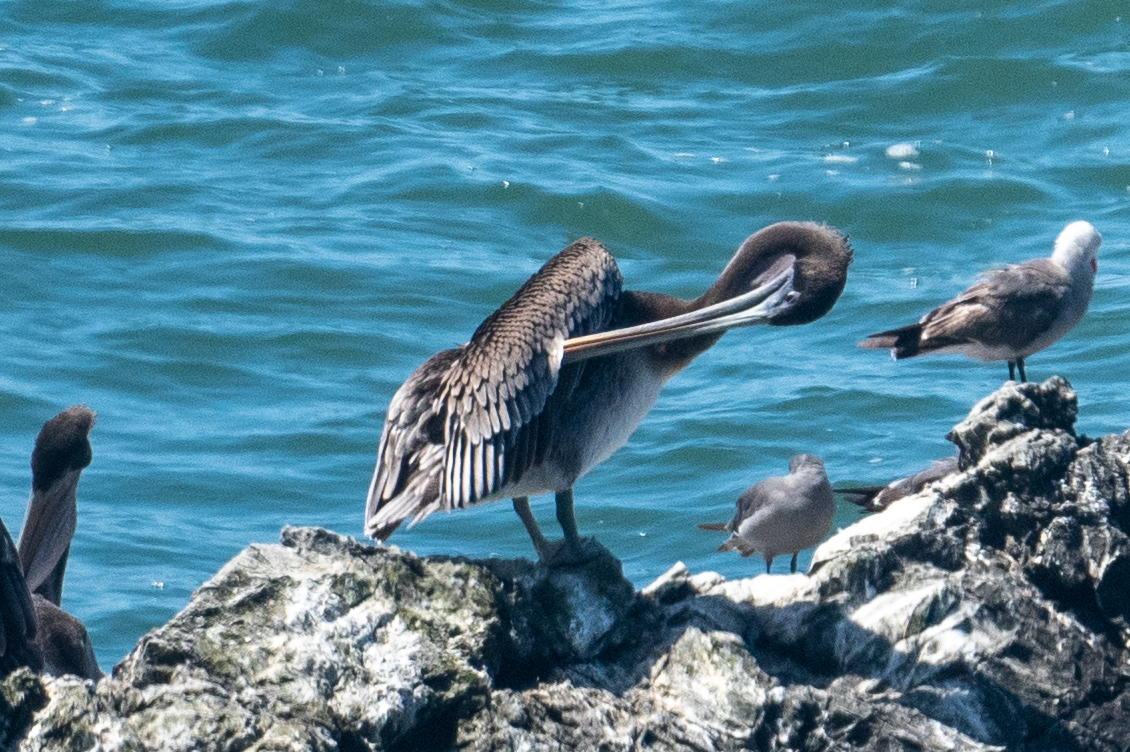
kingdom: Animalia
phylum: Chordata
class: Aves
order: Pelecaniformes
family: Pelecanidae
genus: Pelecanus
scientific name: Pelecanus occidentalis
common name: Brown pelican
